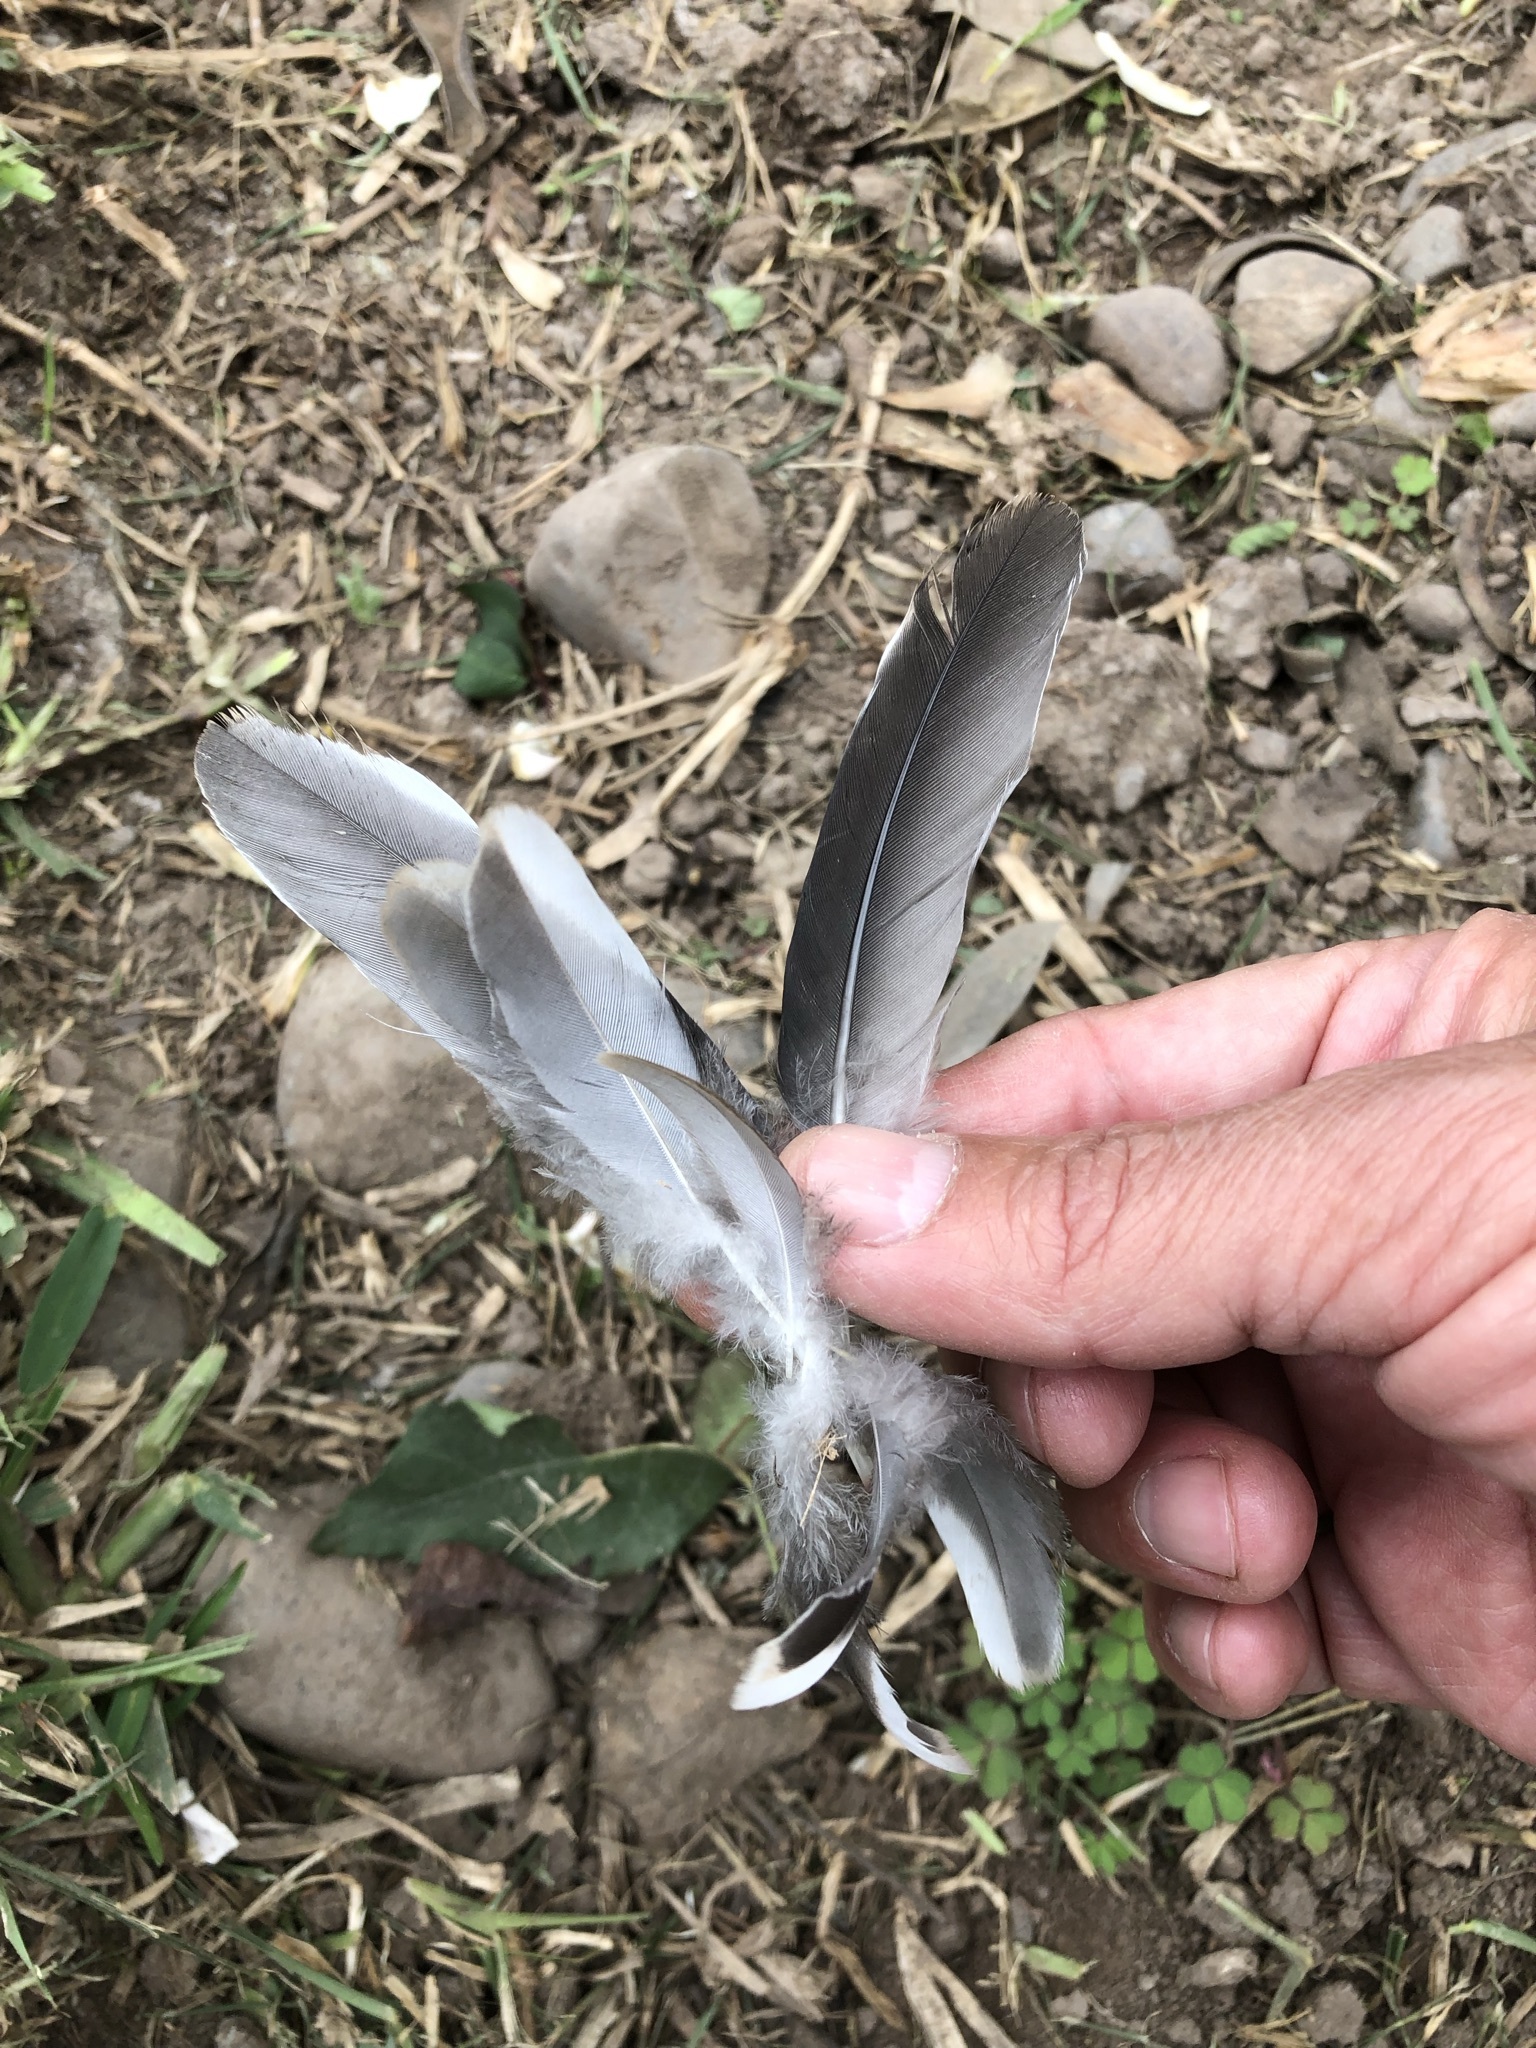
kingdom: Animalia
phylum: Chordata
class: Aves
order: Columbiformes
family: Columbidae
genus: Zenaida
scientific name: Zenaida meloda
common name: West peruvian dove
